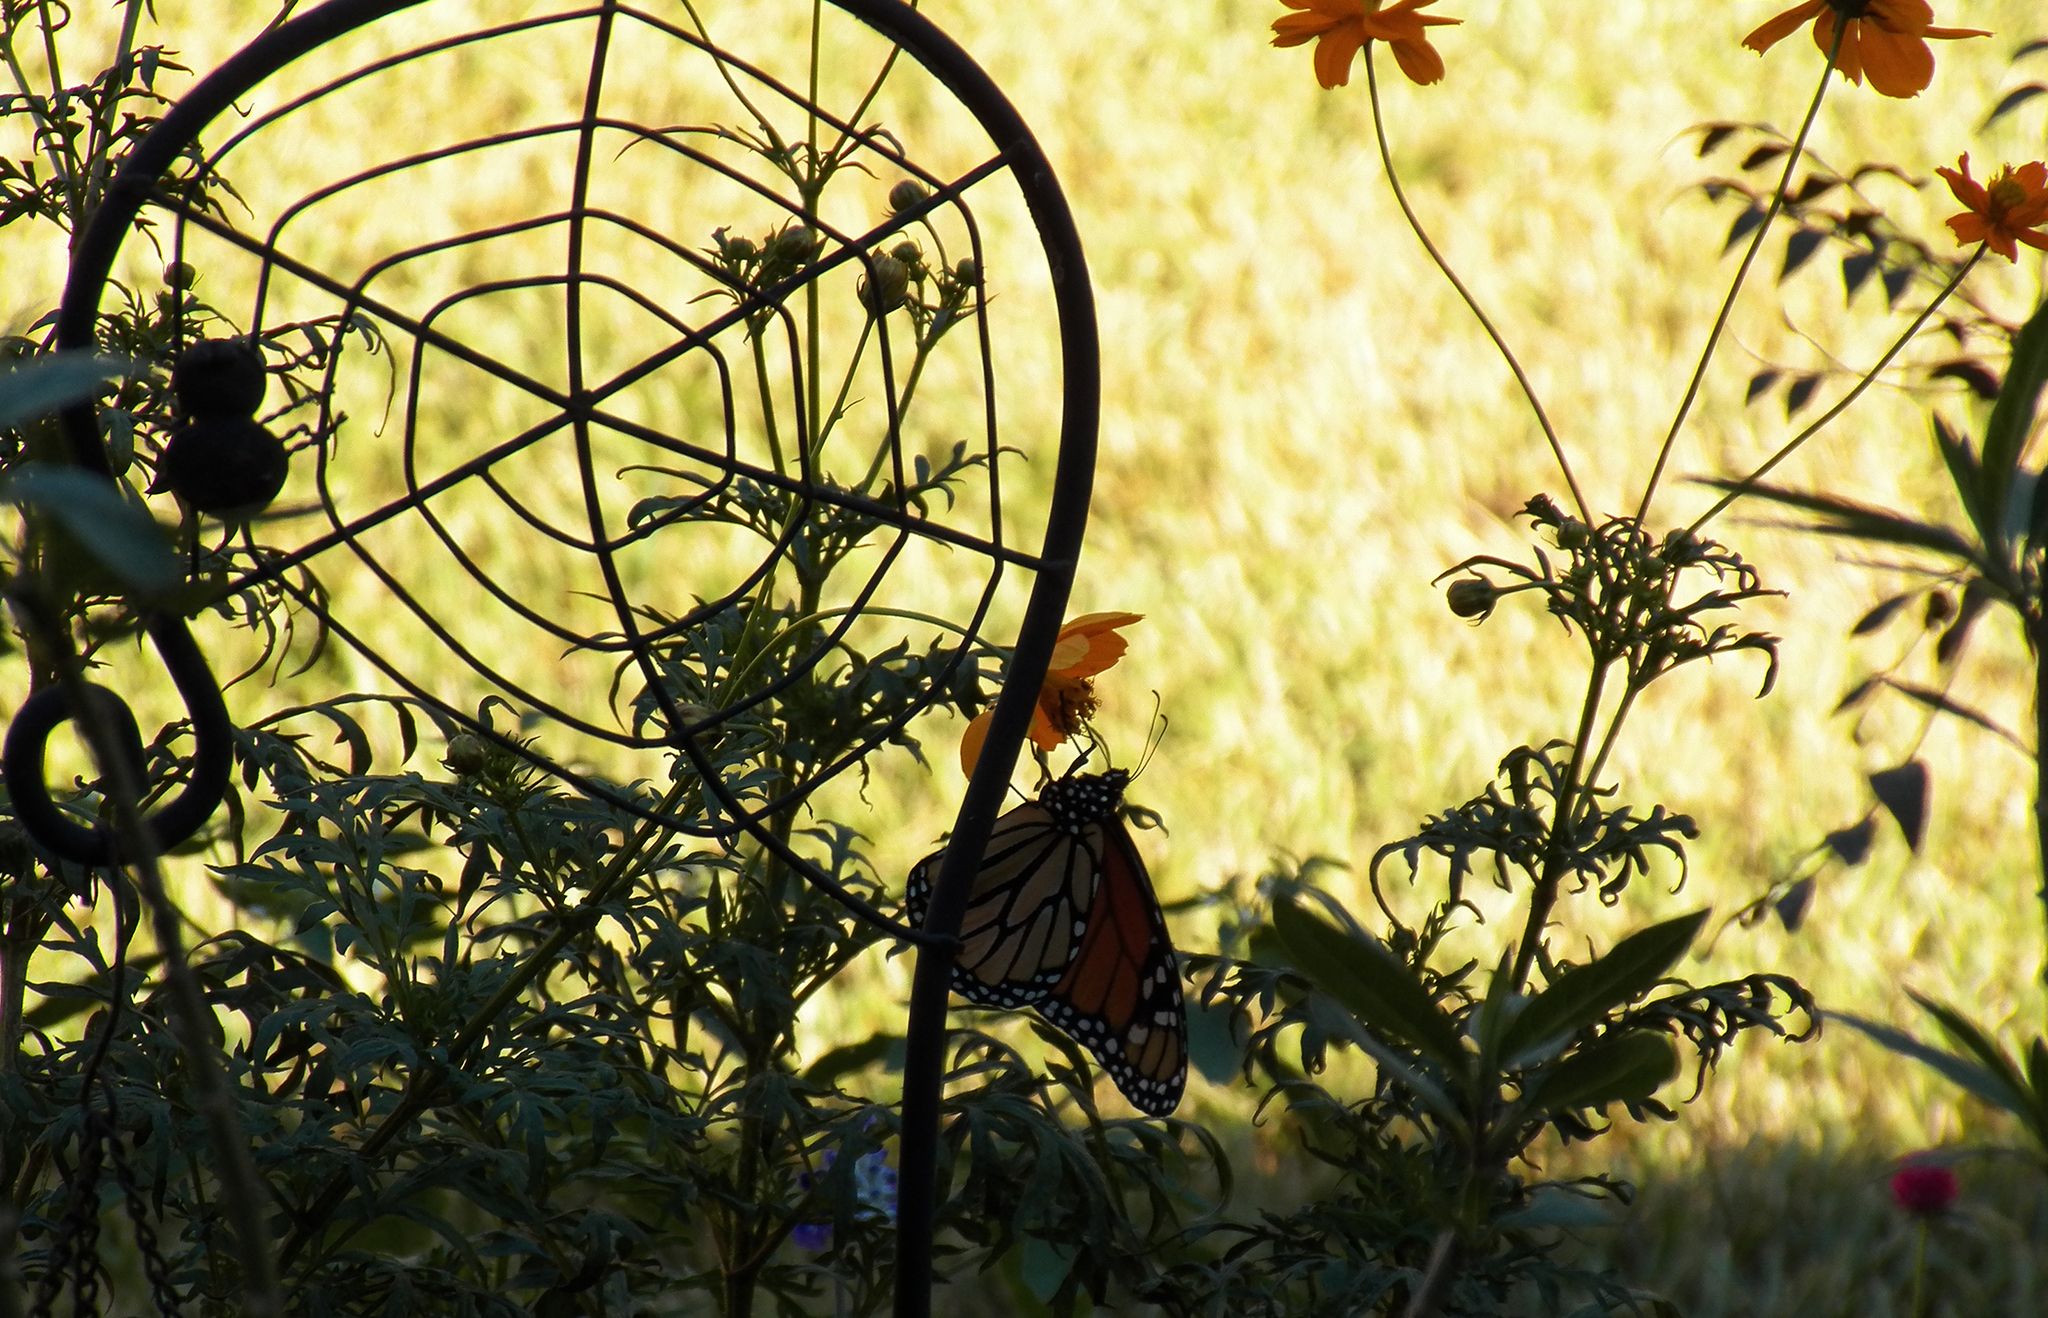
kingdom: Animalia
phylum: Arthropoda
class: Insecta
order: Lepidoptera
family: Nymphalidae
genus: Danaus
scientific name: Danaus plexippus
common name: Monarch
